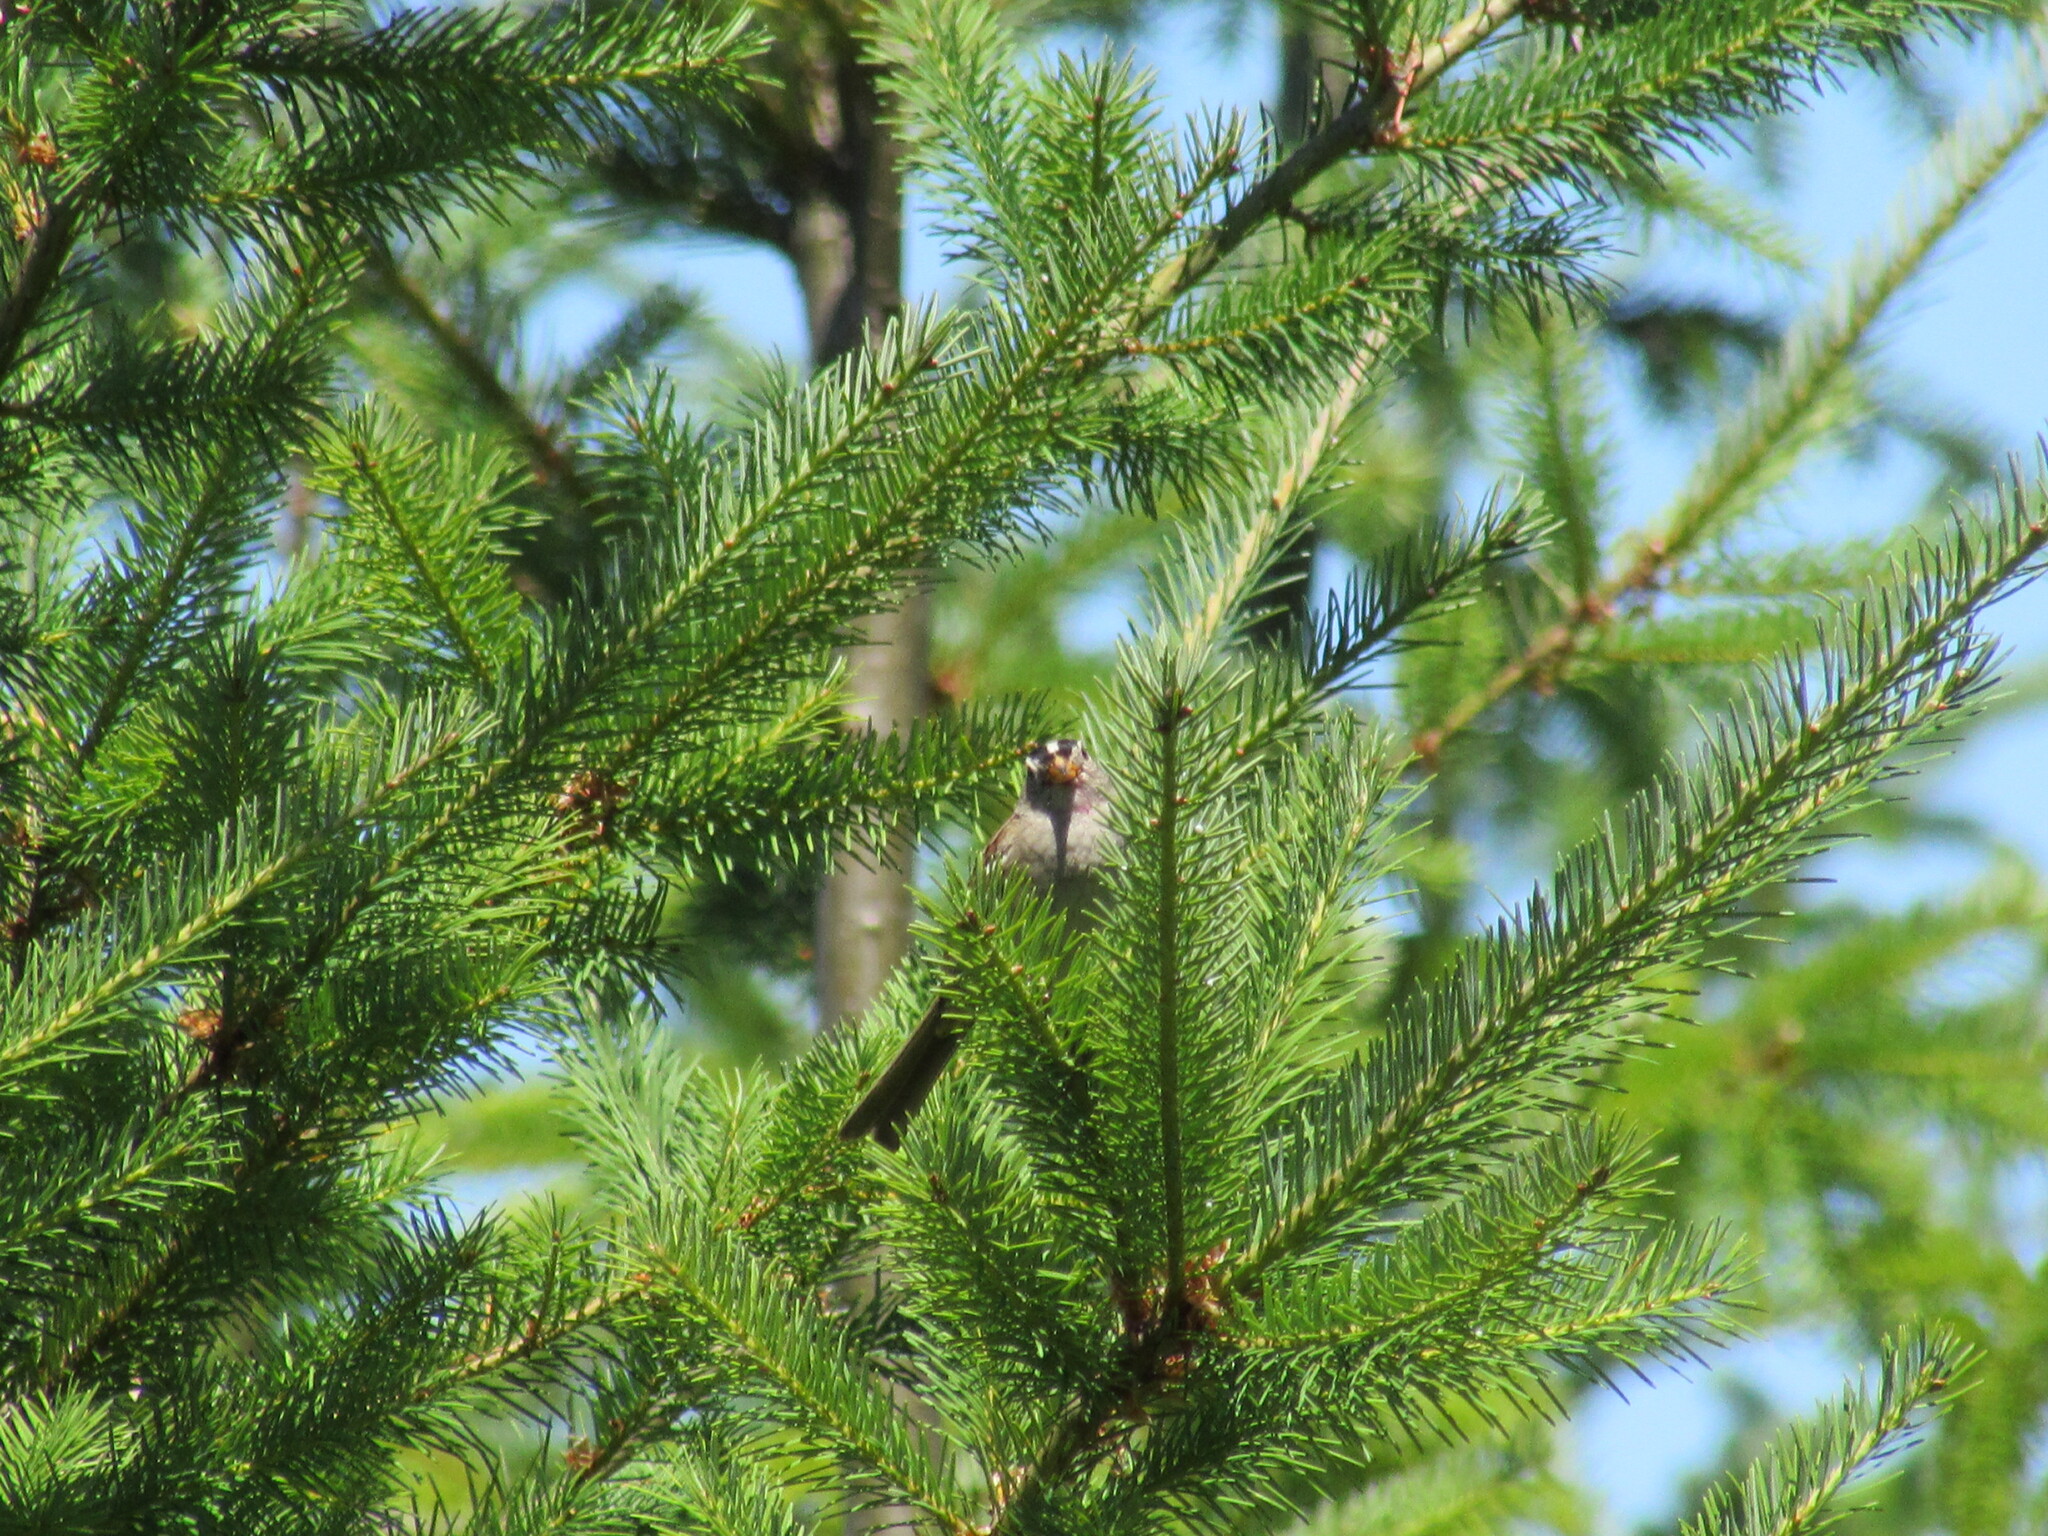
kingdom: Animalia
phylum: Chordata
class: Aves
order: Passeriformes
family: Passerellidae
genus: Zonotrichia
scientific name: Zonotrichia leucophrys
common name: White-crowned sparrow
